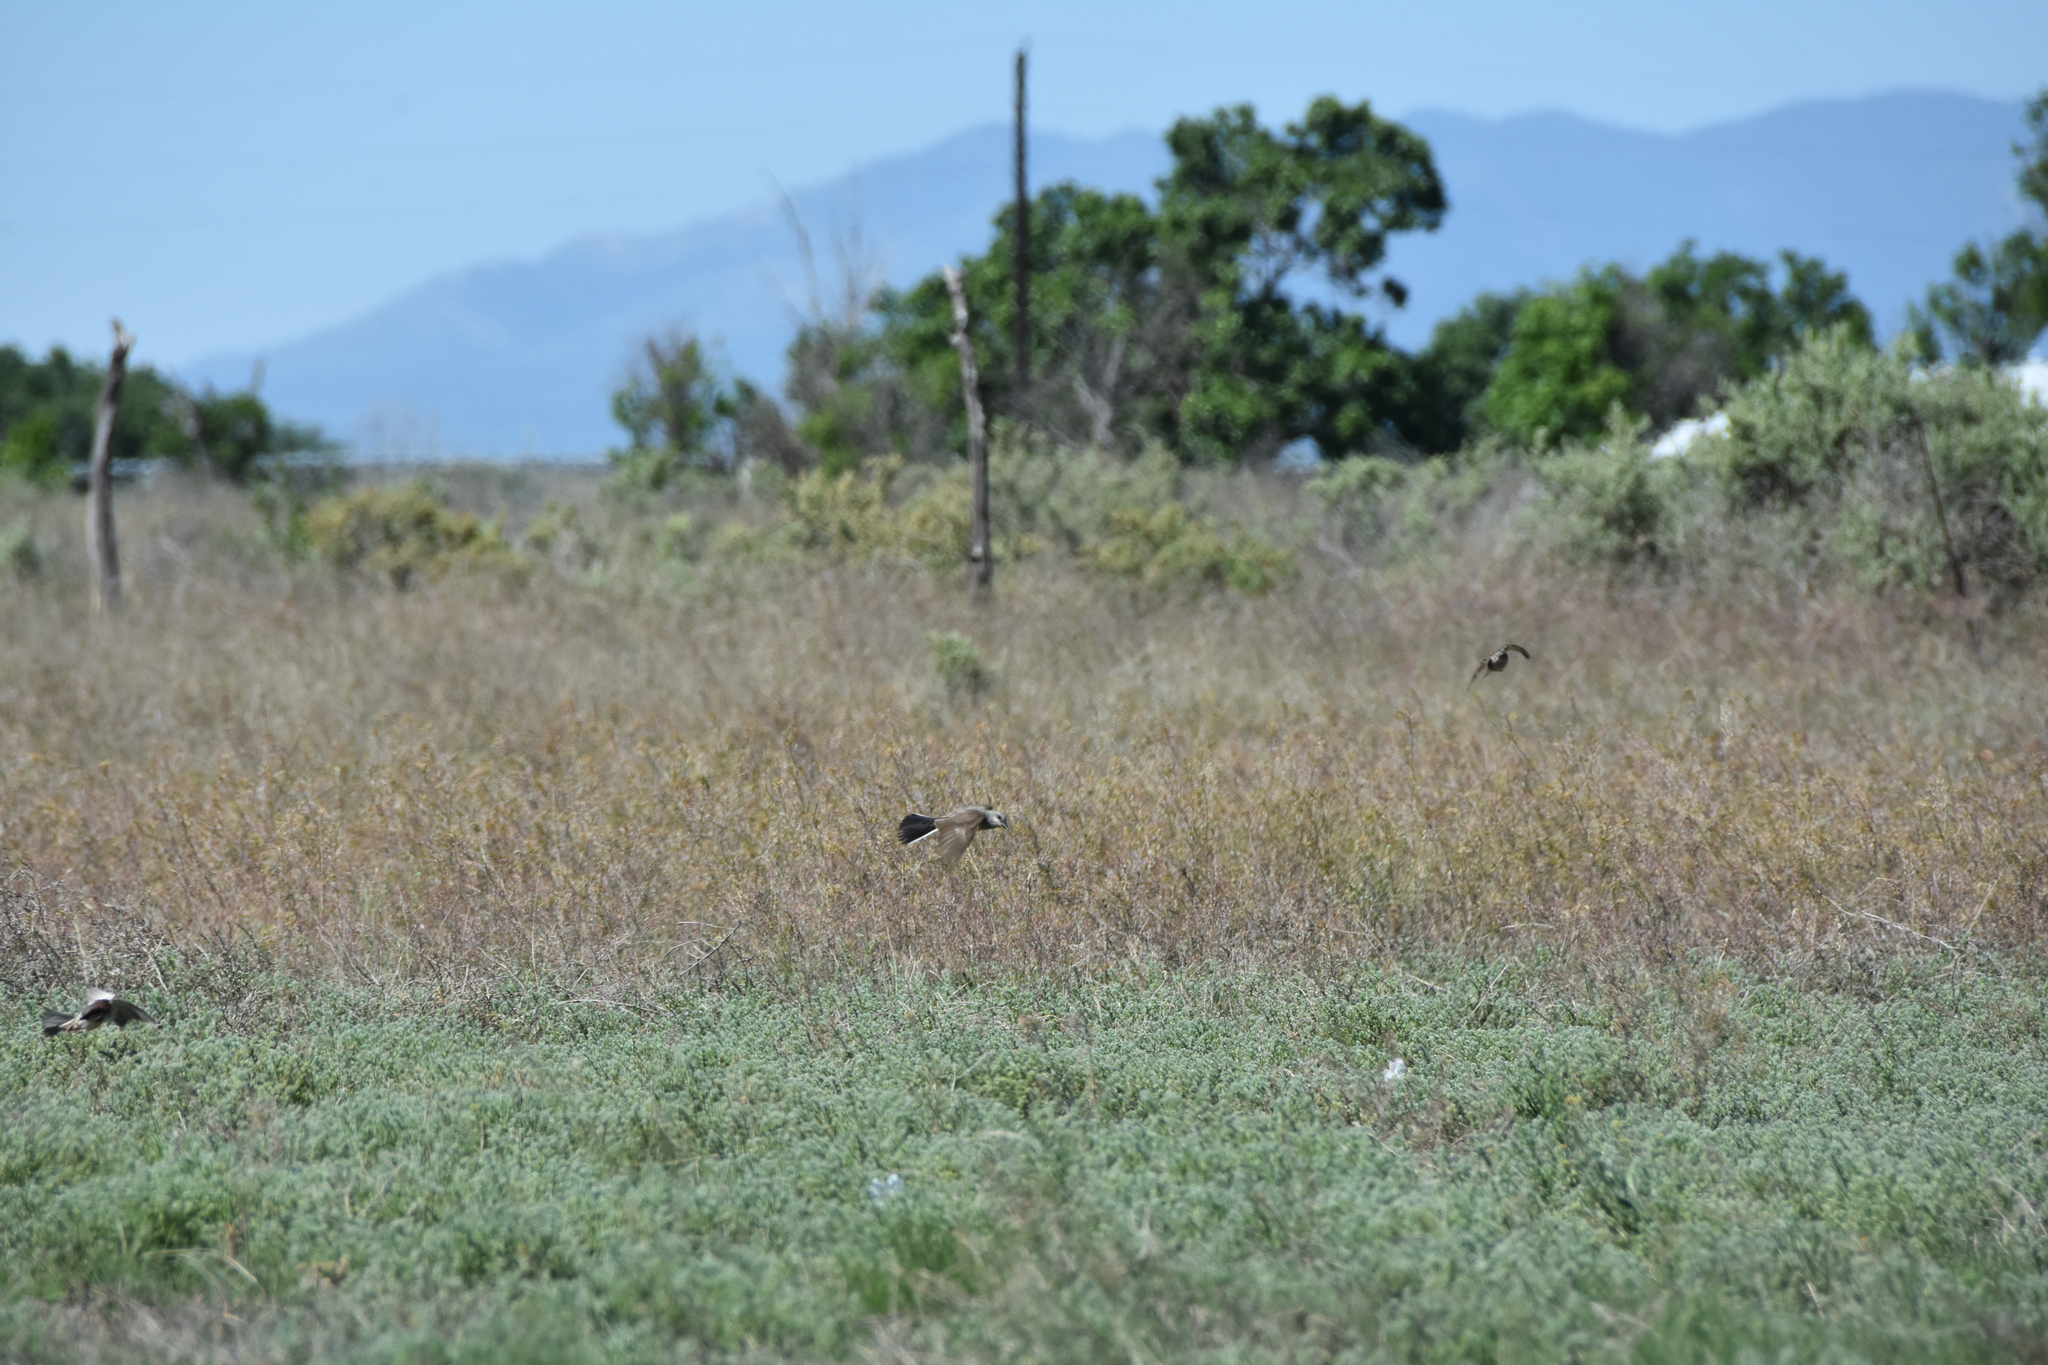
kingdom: Animalia
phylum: Chordata
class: Aves
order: Passeriformes
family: Passeridae
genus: Passer
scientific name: Passer domesticus
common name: House sparrow
